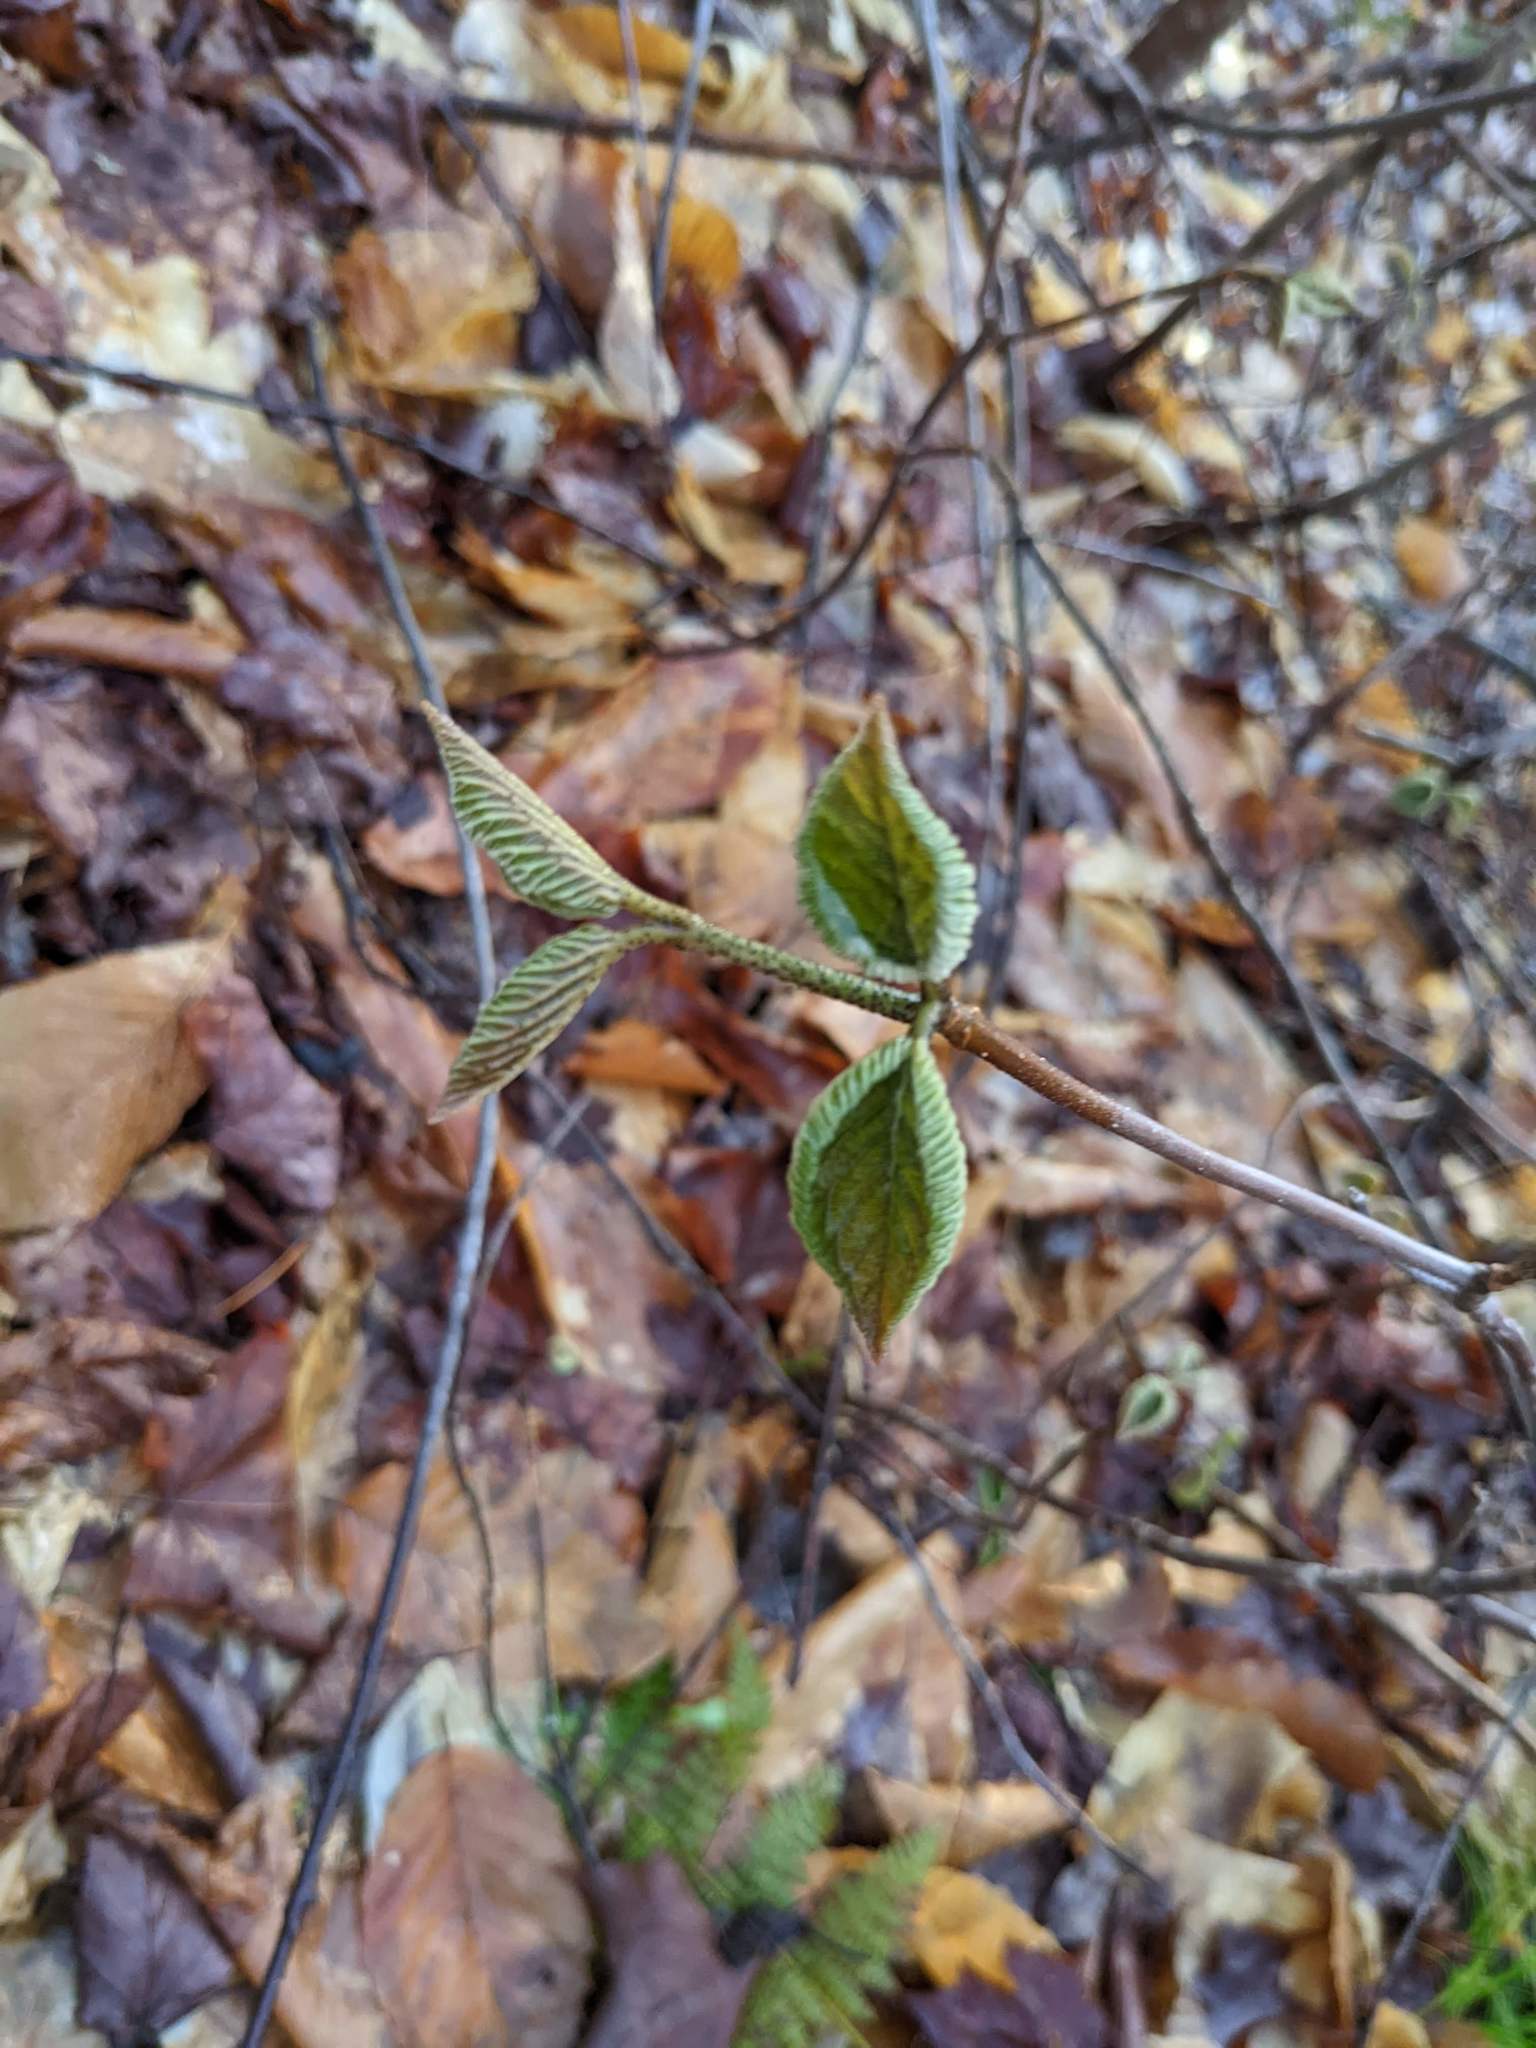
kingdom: Plantae
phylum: Tracheophyta
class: Magnoliopsida
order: Dipsacales
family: Viburnaceae
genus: Viburnum
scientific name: Viburnum lantanoides
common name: Hobblebush
